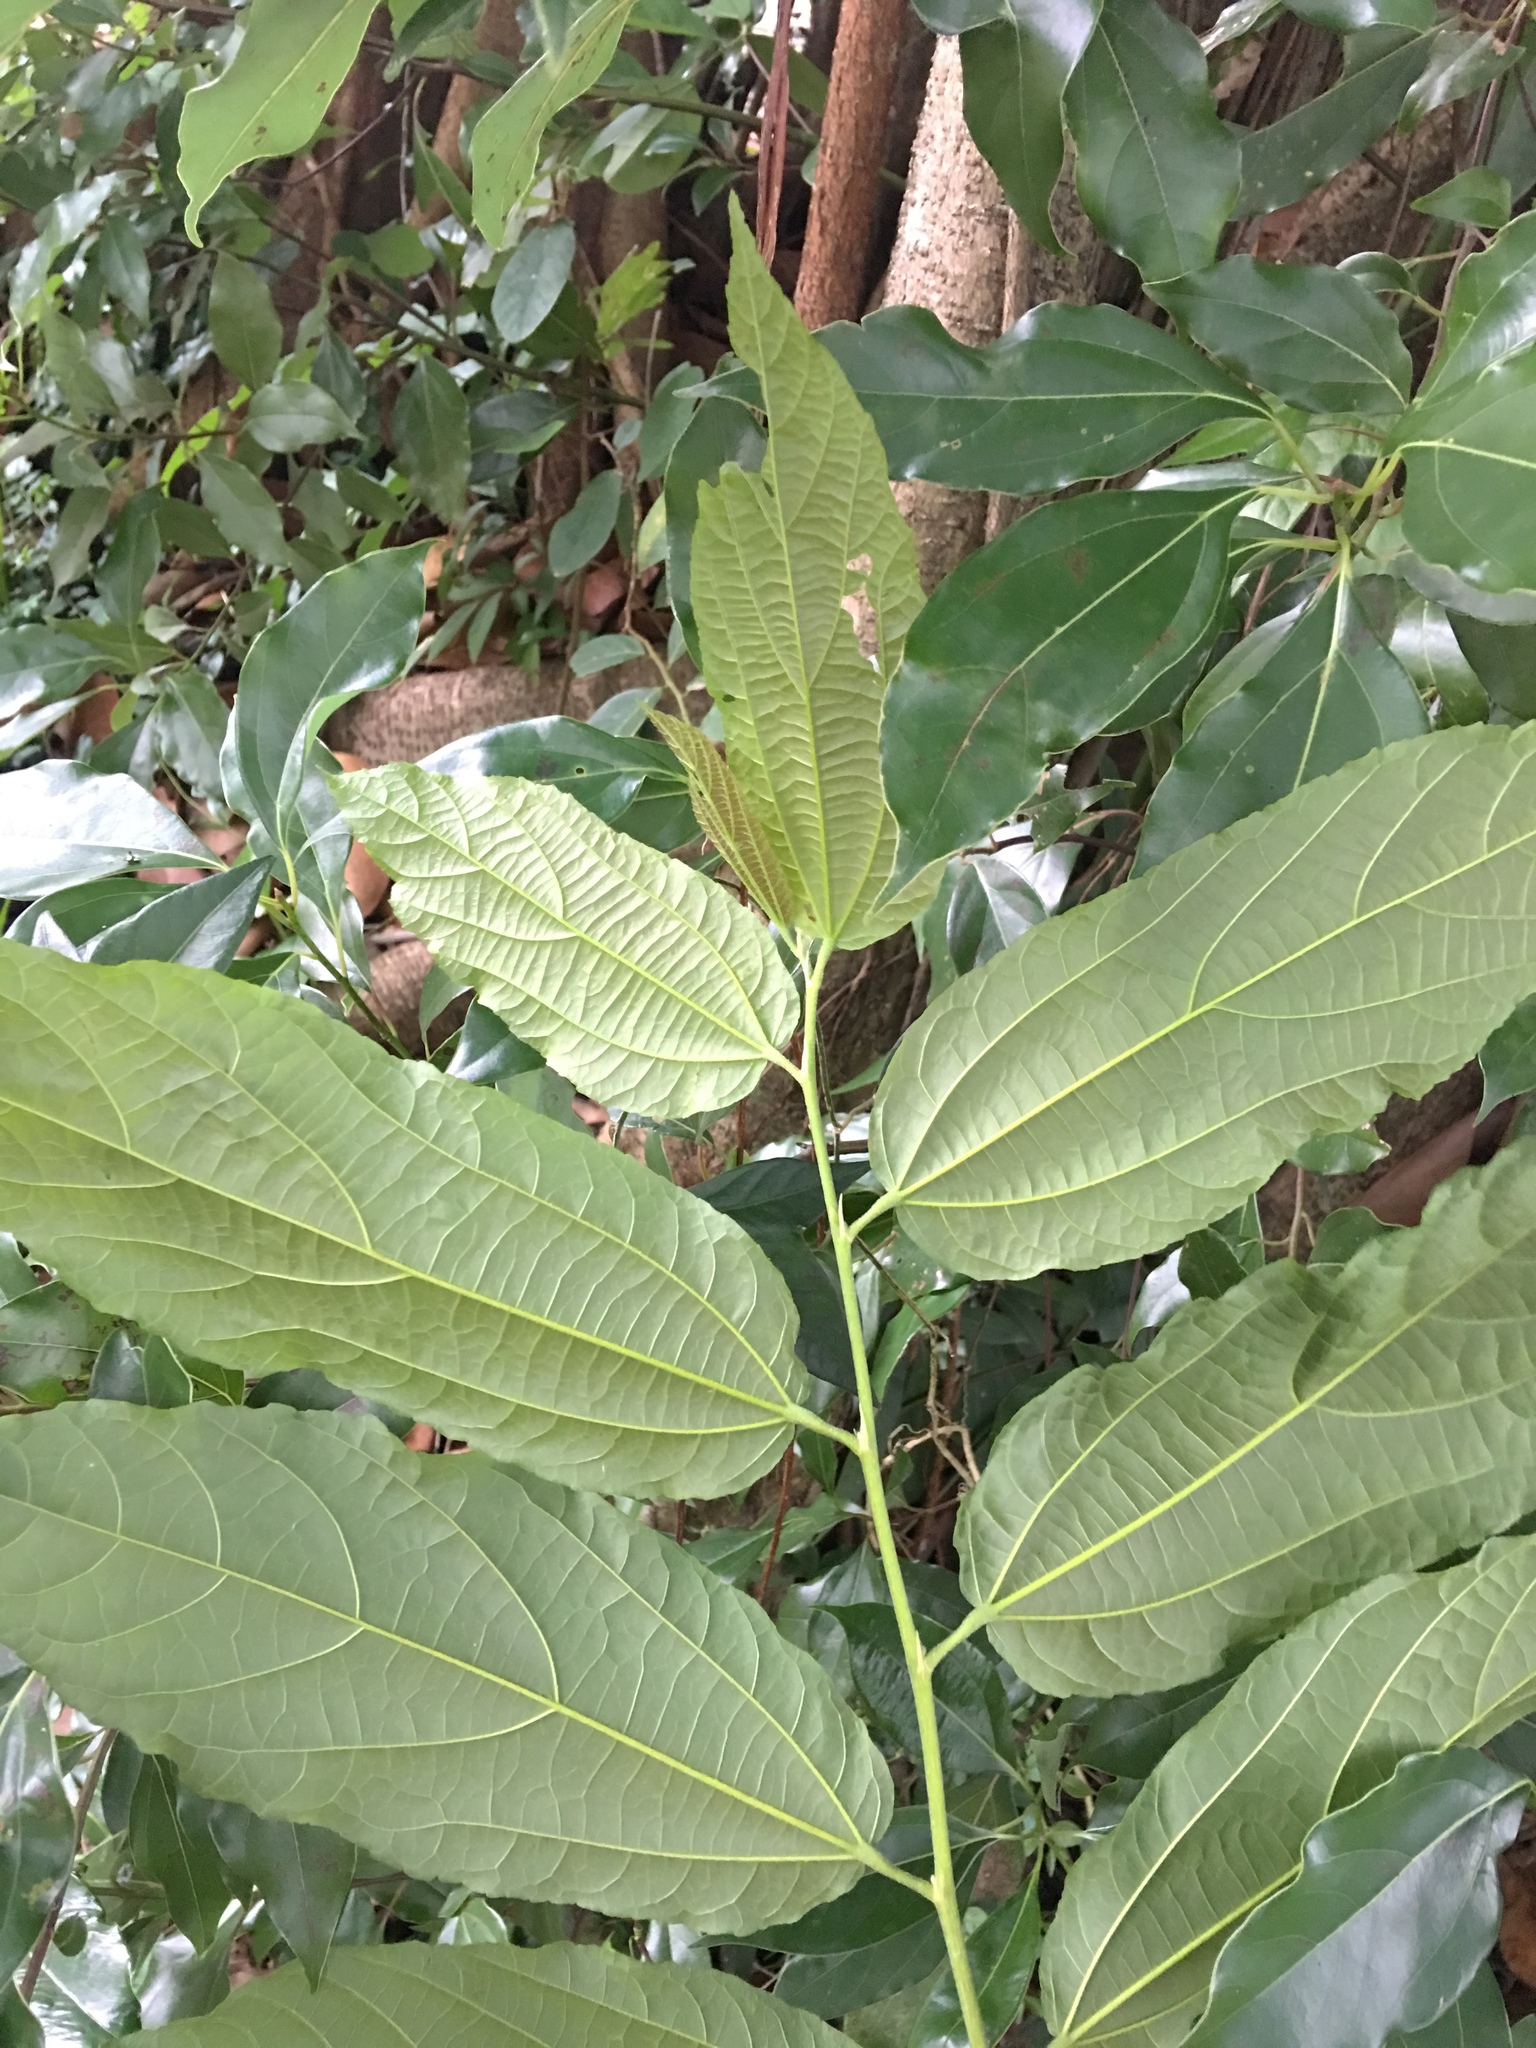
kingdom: Plantae
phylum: Tracheophyta
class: Magnoliopsida
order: Malvales
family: Malvaceae
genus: Microcos
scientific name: Microcos paniculata
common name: Microcos
